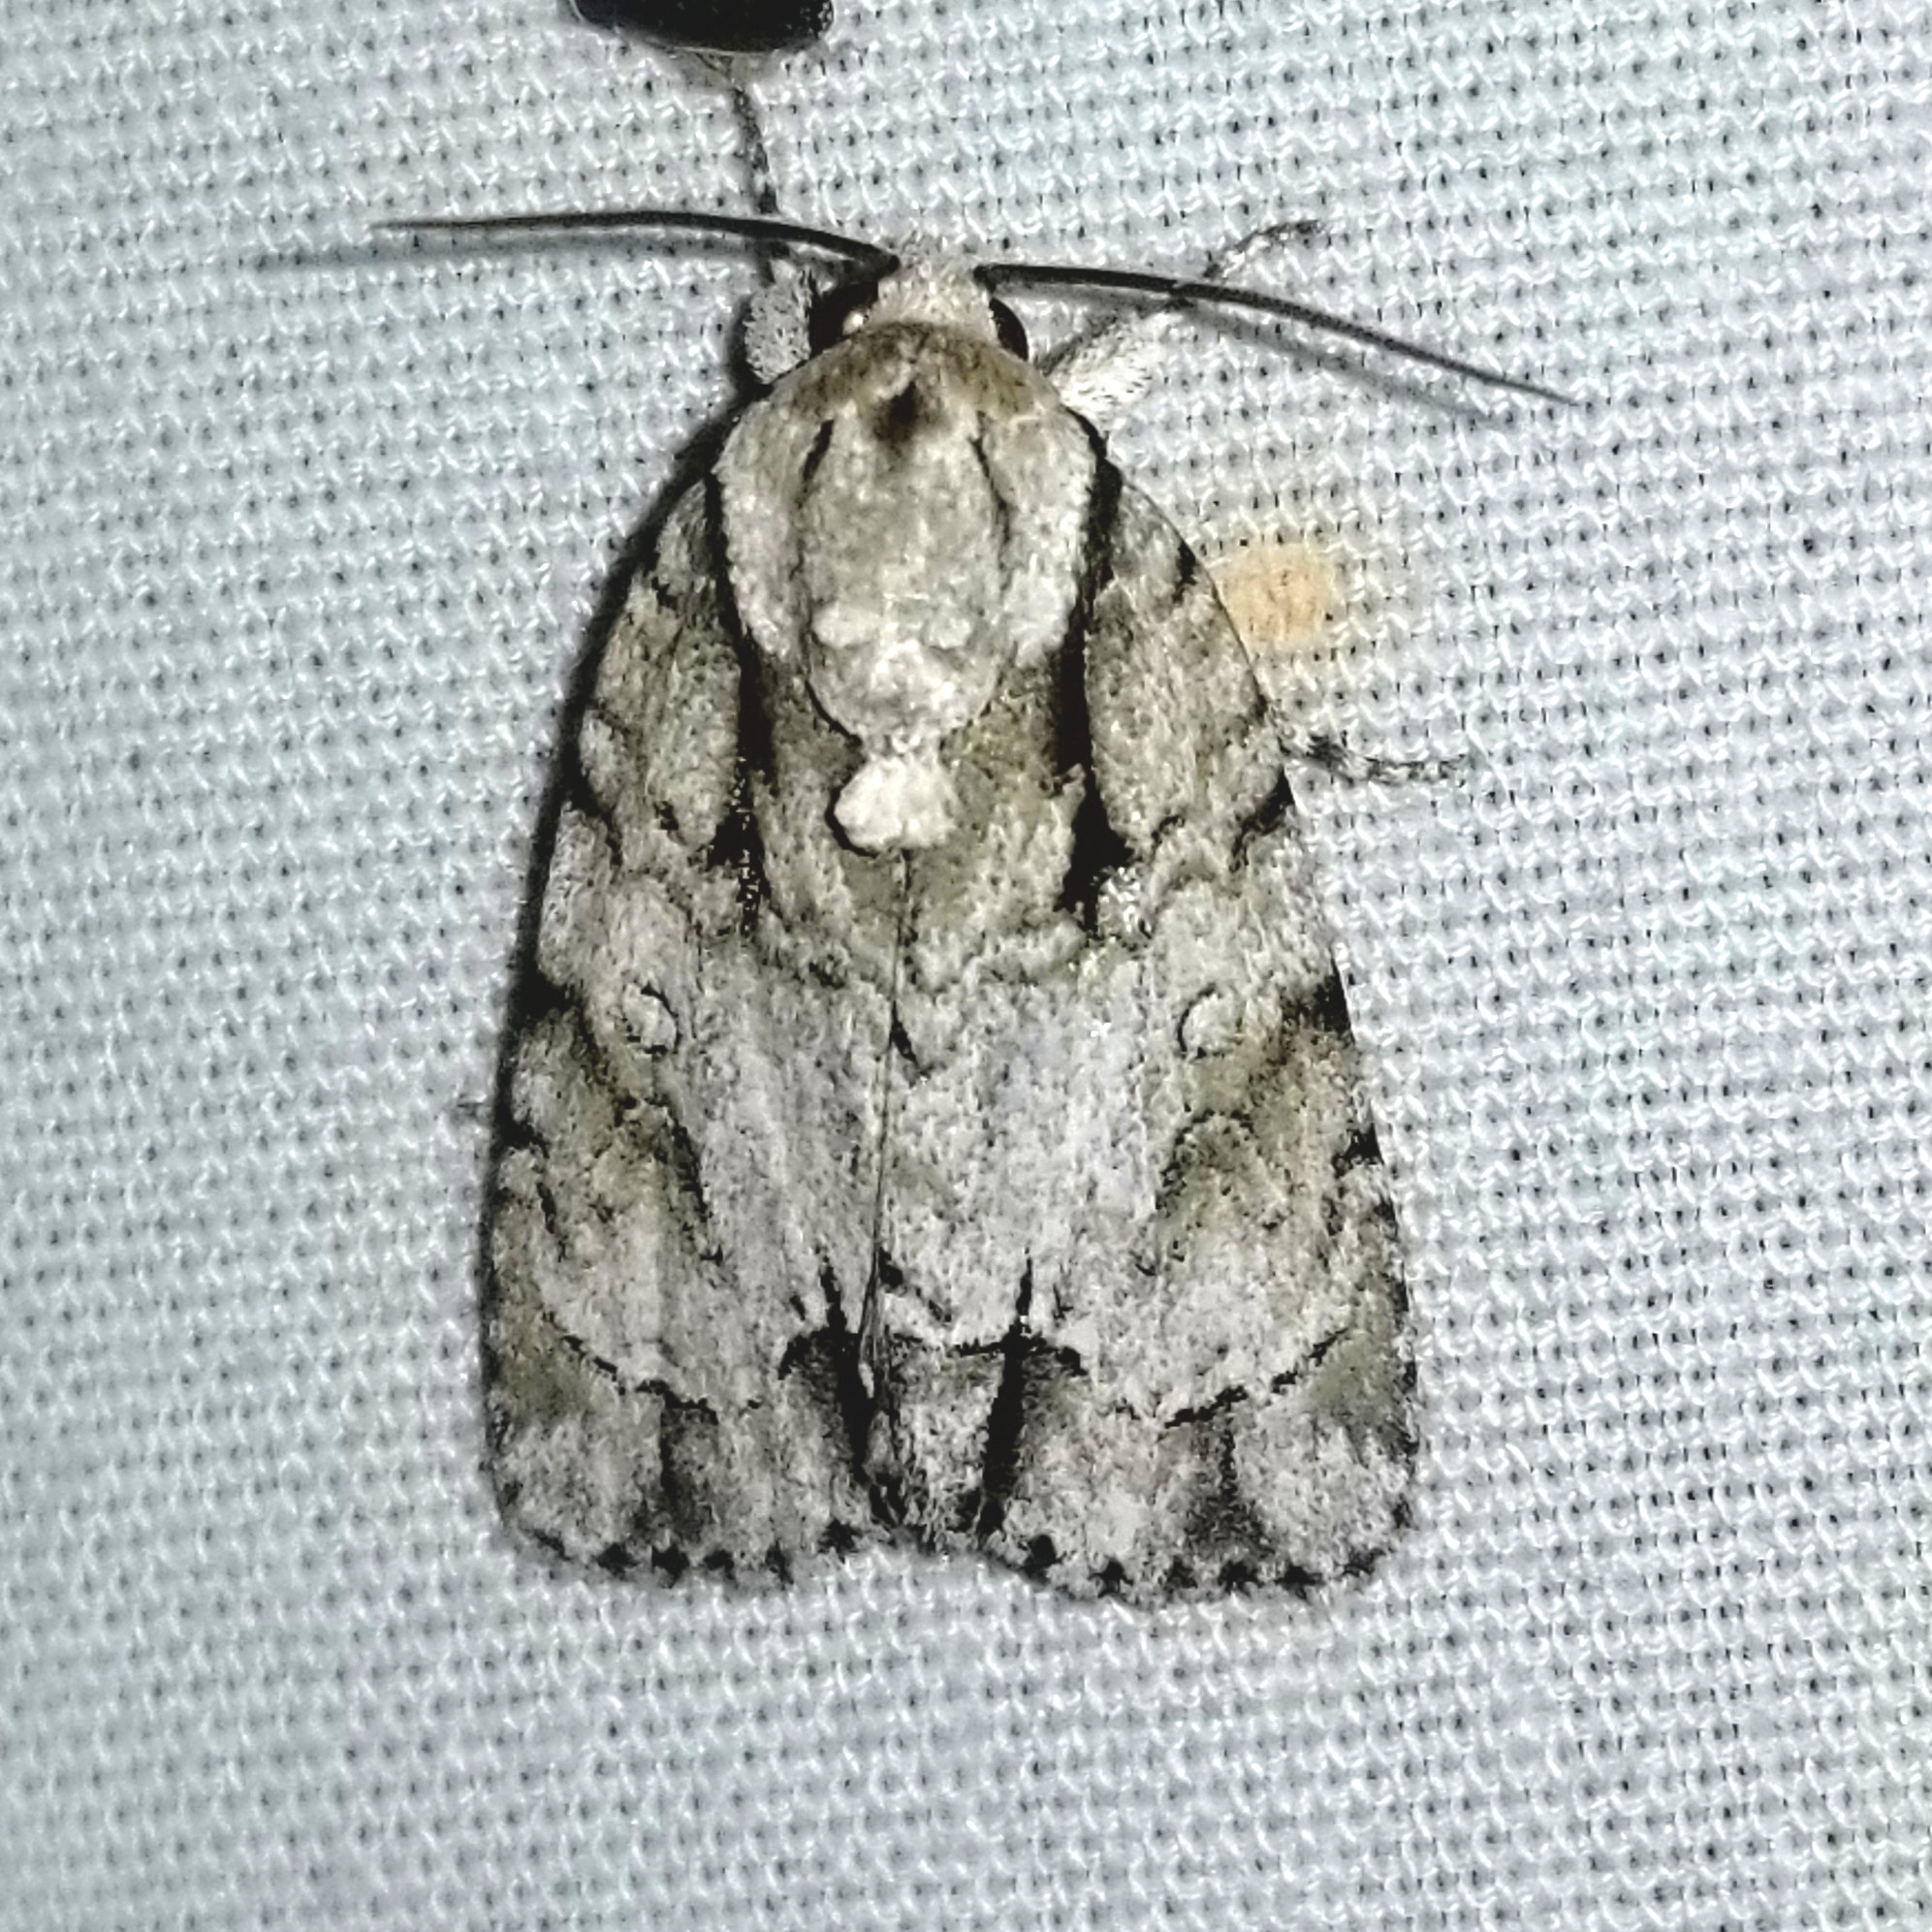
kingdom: Animalia
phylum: Arthropoda
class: Insecta
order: Lepidoptera
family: Noctuidae
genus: Acronicta
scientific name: Acronicta vinnula
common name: Delightful dagger
